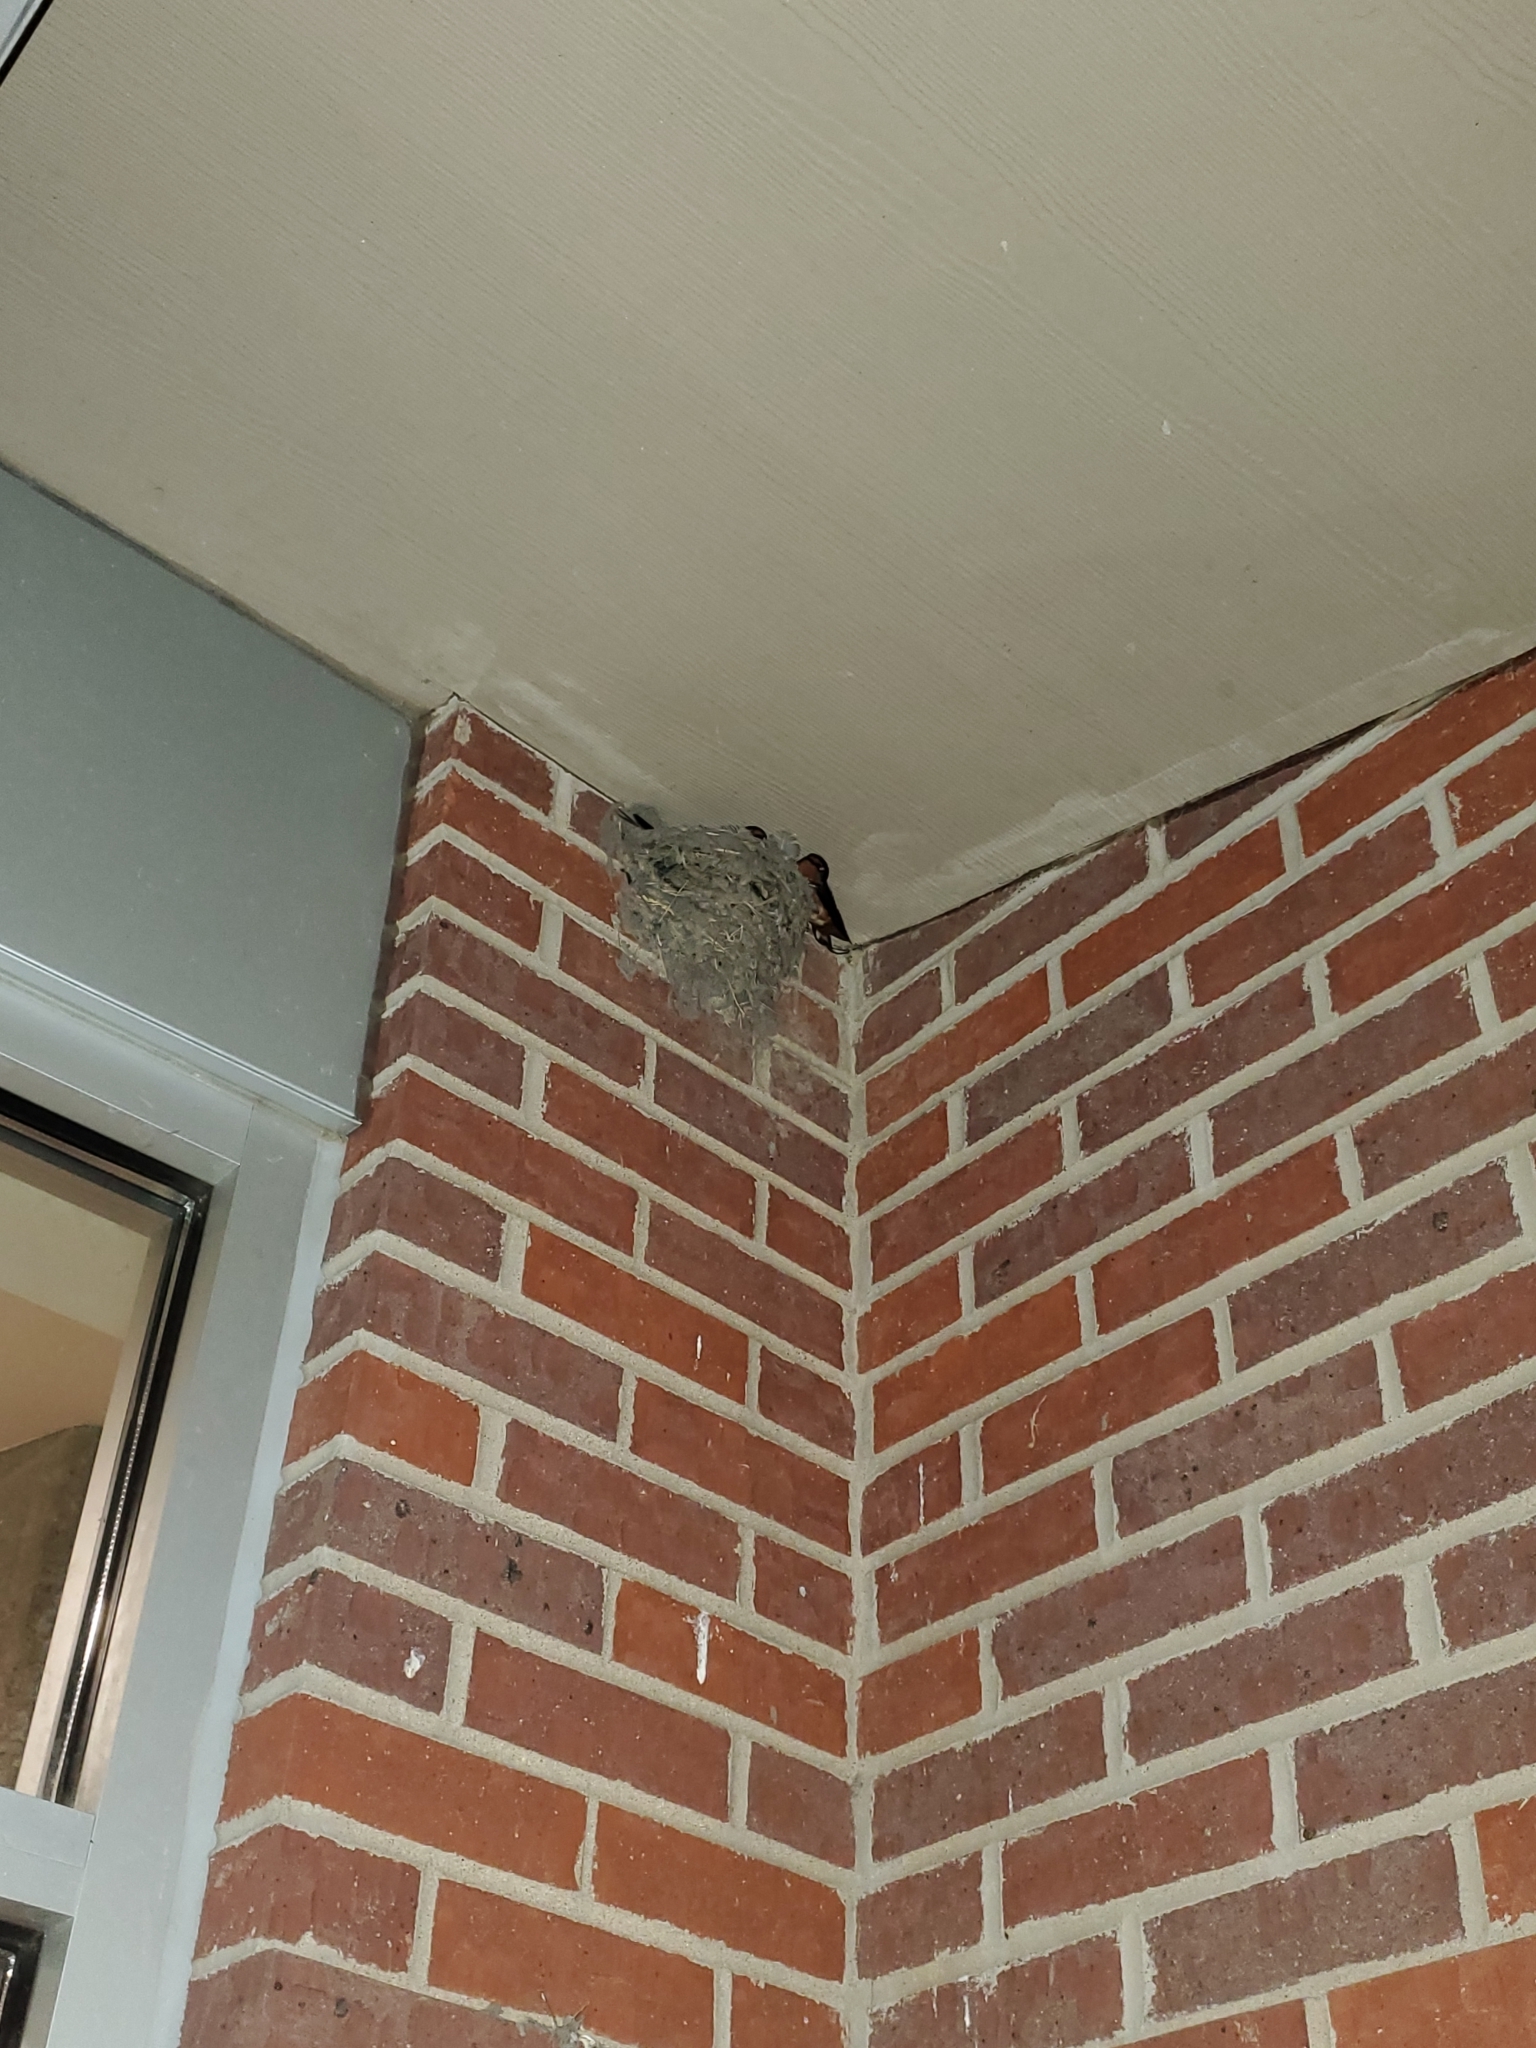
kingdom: Animalia
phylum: Chordata
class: Aves
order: Passeriformes
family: Hirundinidae
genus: Hirundo
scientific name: Hirundo rustica
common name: Barn swallow
